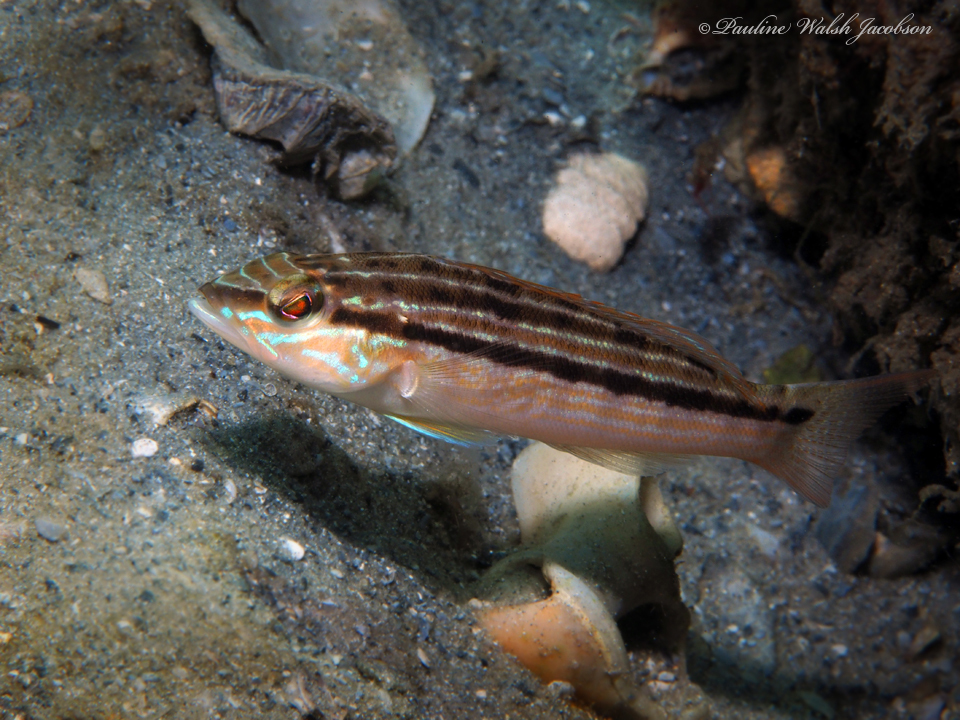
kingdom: Animalia
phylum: Chordata
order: Perciformes
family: Serranidae
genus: Diplectrum
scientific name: Diplectrum formosum
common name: Sand perch
